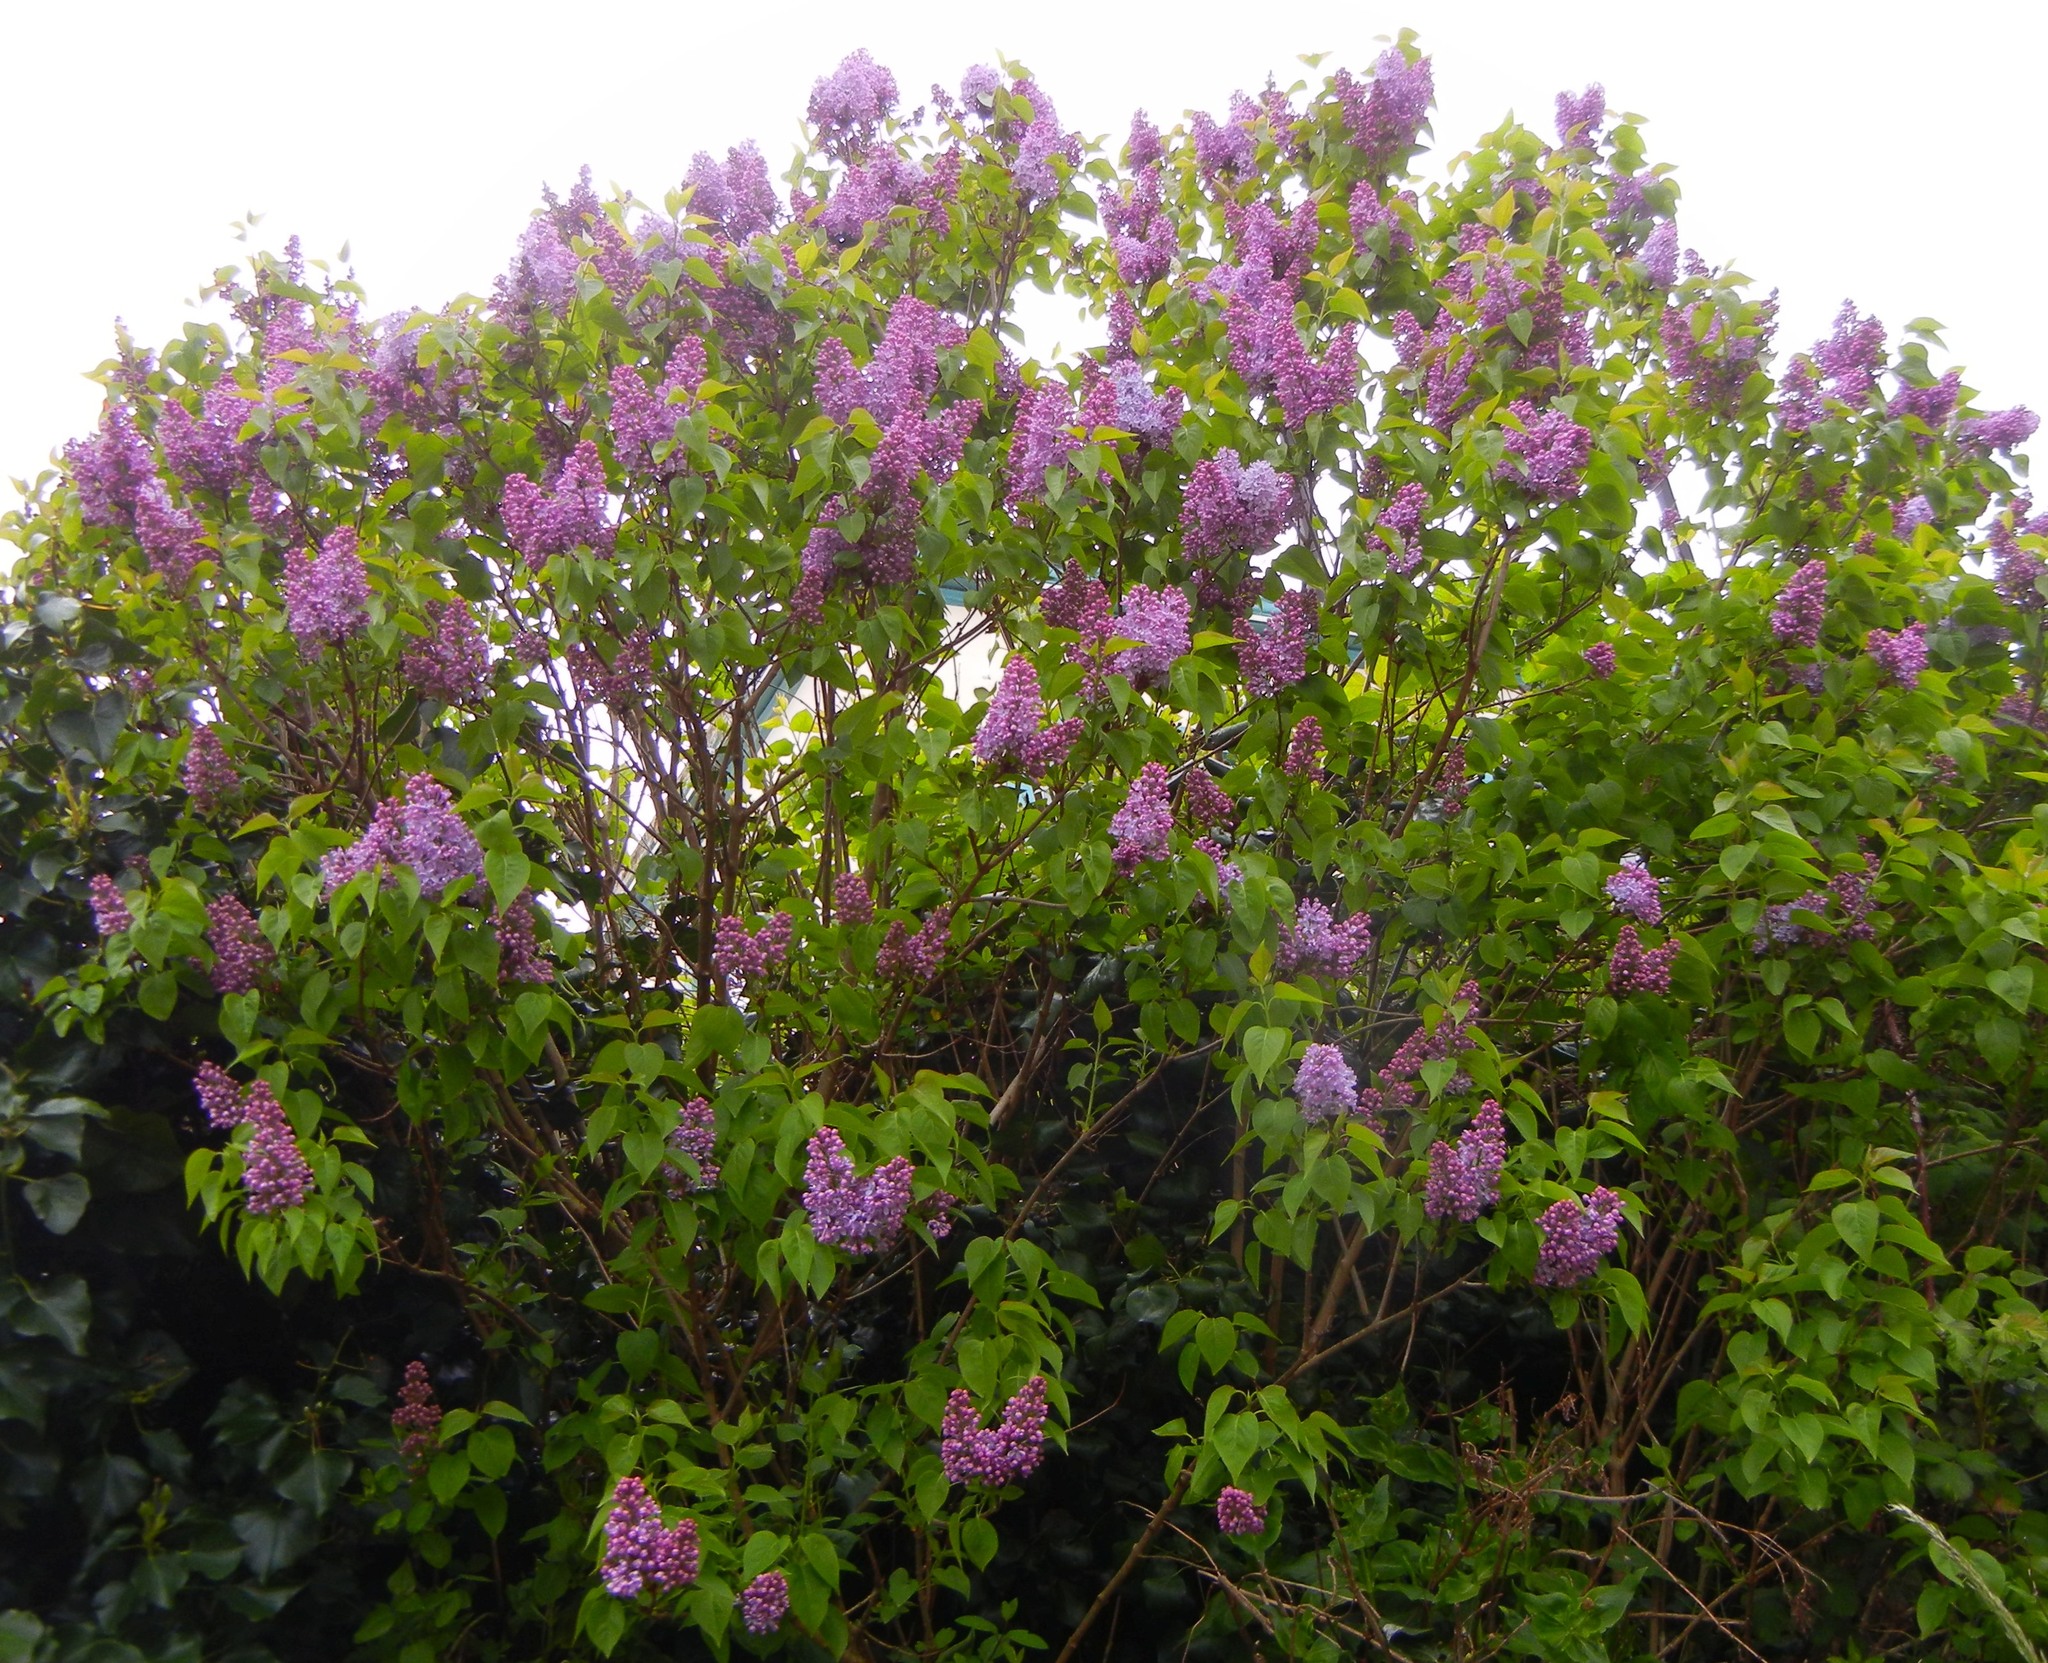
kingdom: Plantae
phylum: Tracheophyta
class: Magnoliopsida
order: Lamiales
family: Oleaceae
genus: Syringa
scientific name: Syringa vulgaris
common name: Common lilac
